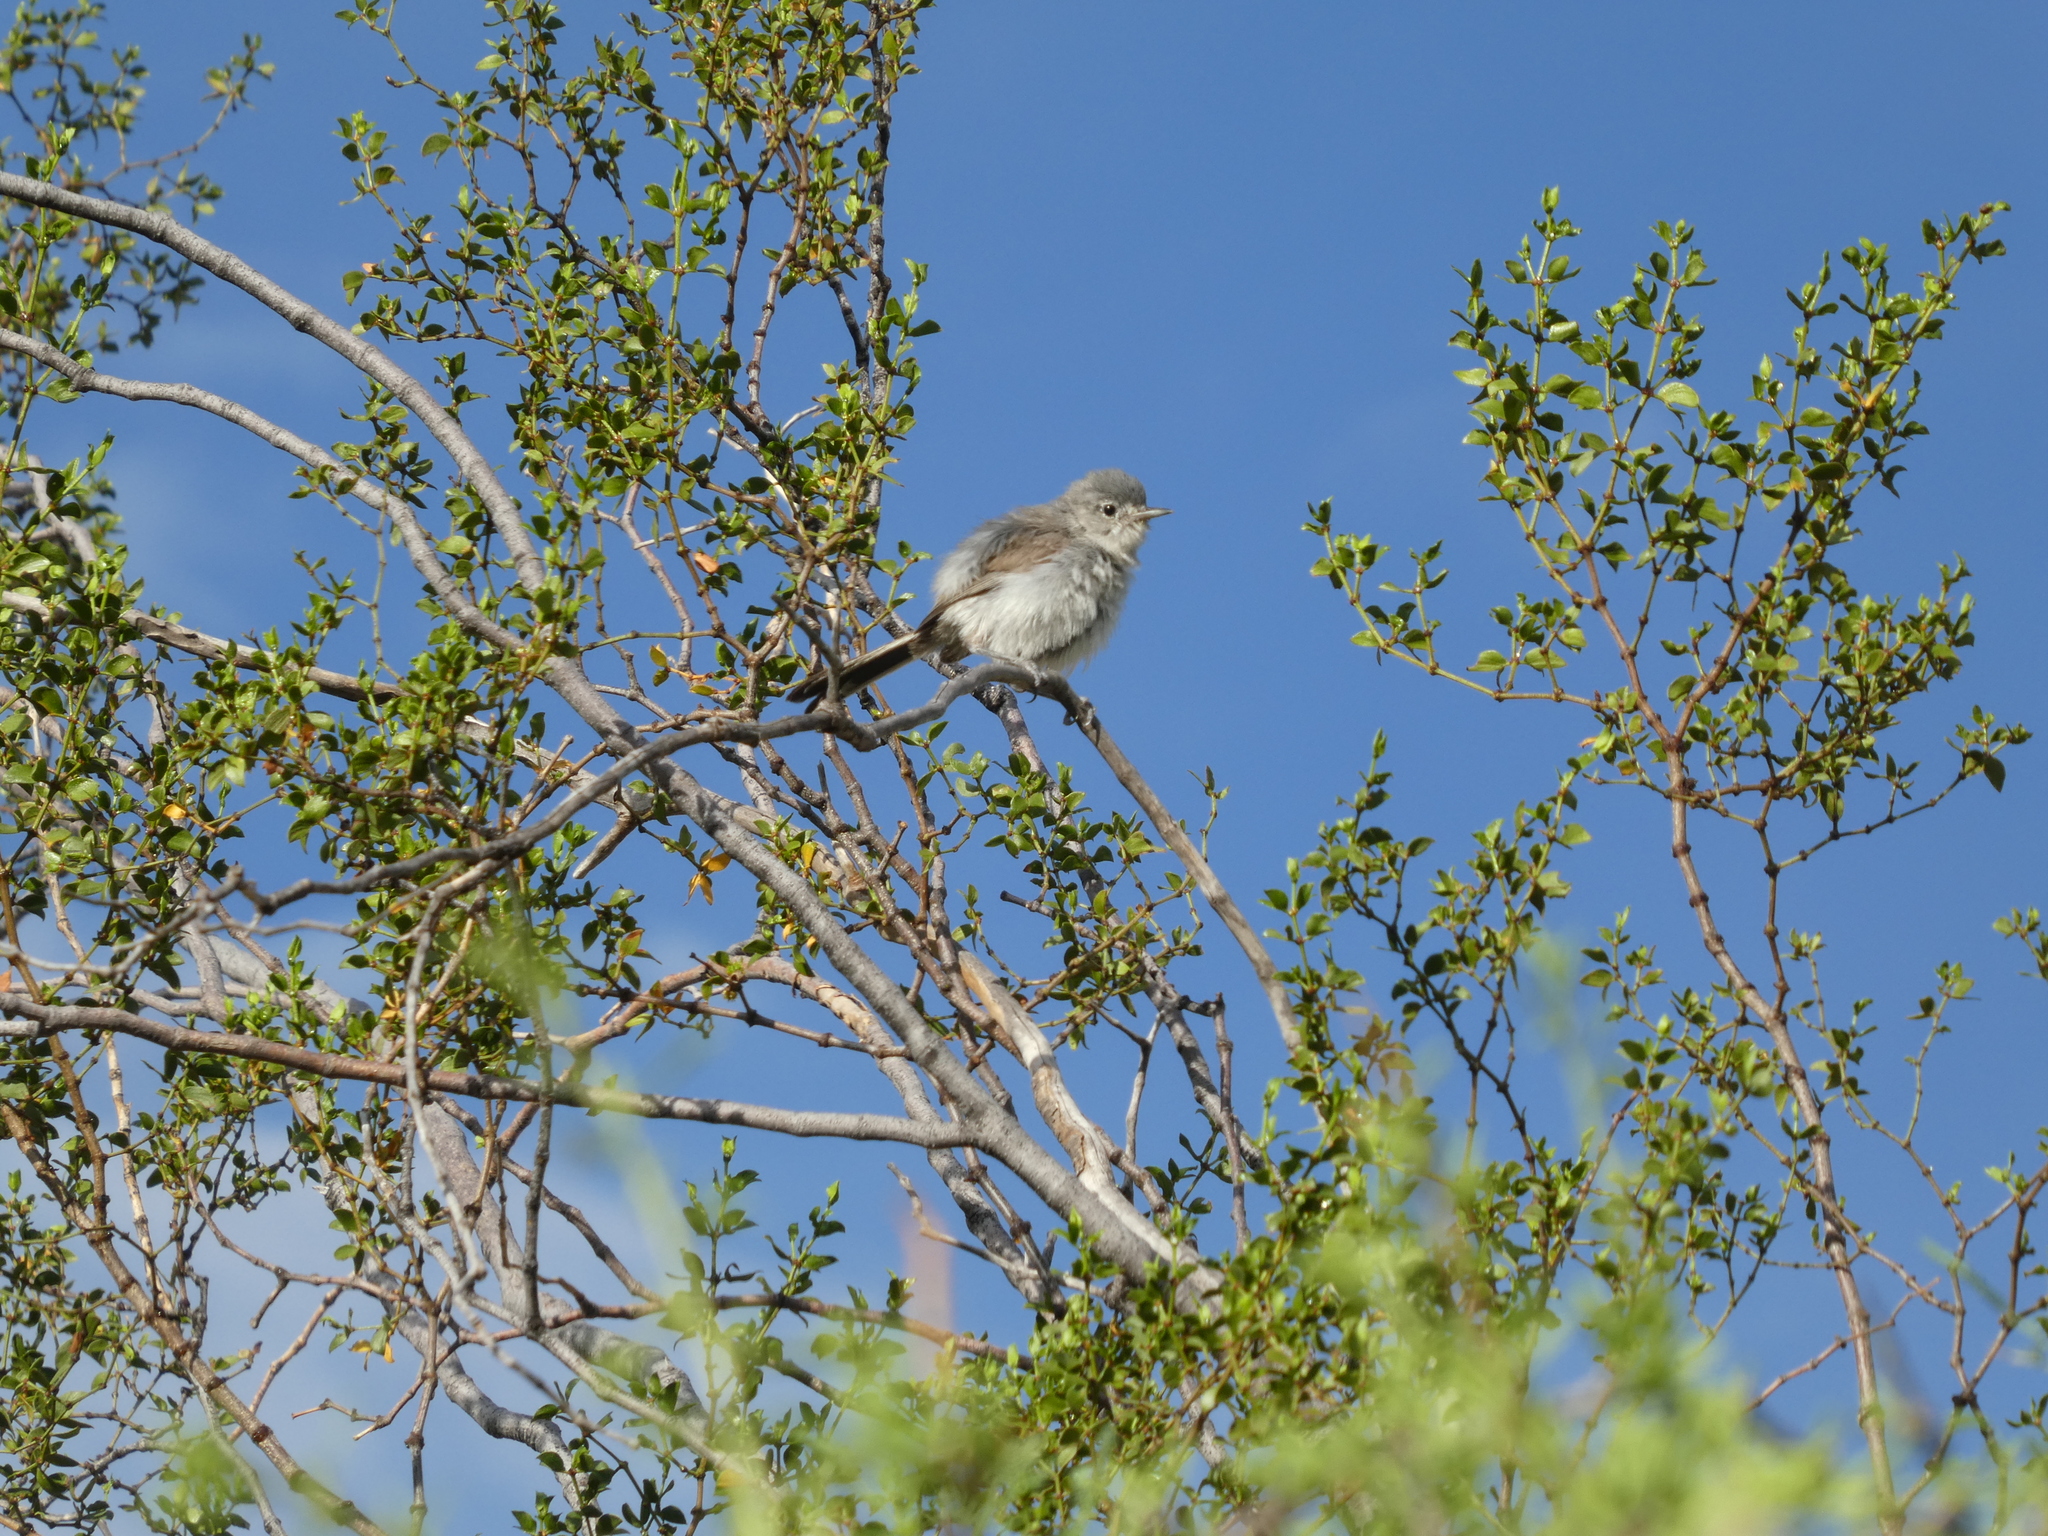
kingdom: Animalia
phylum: Chordata
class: Aves
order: Passeriformes
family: Polioptilidae
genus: Polioptila
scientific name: Polioptila melanura
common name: Black-tailed gnatcatcher
